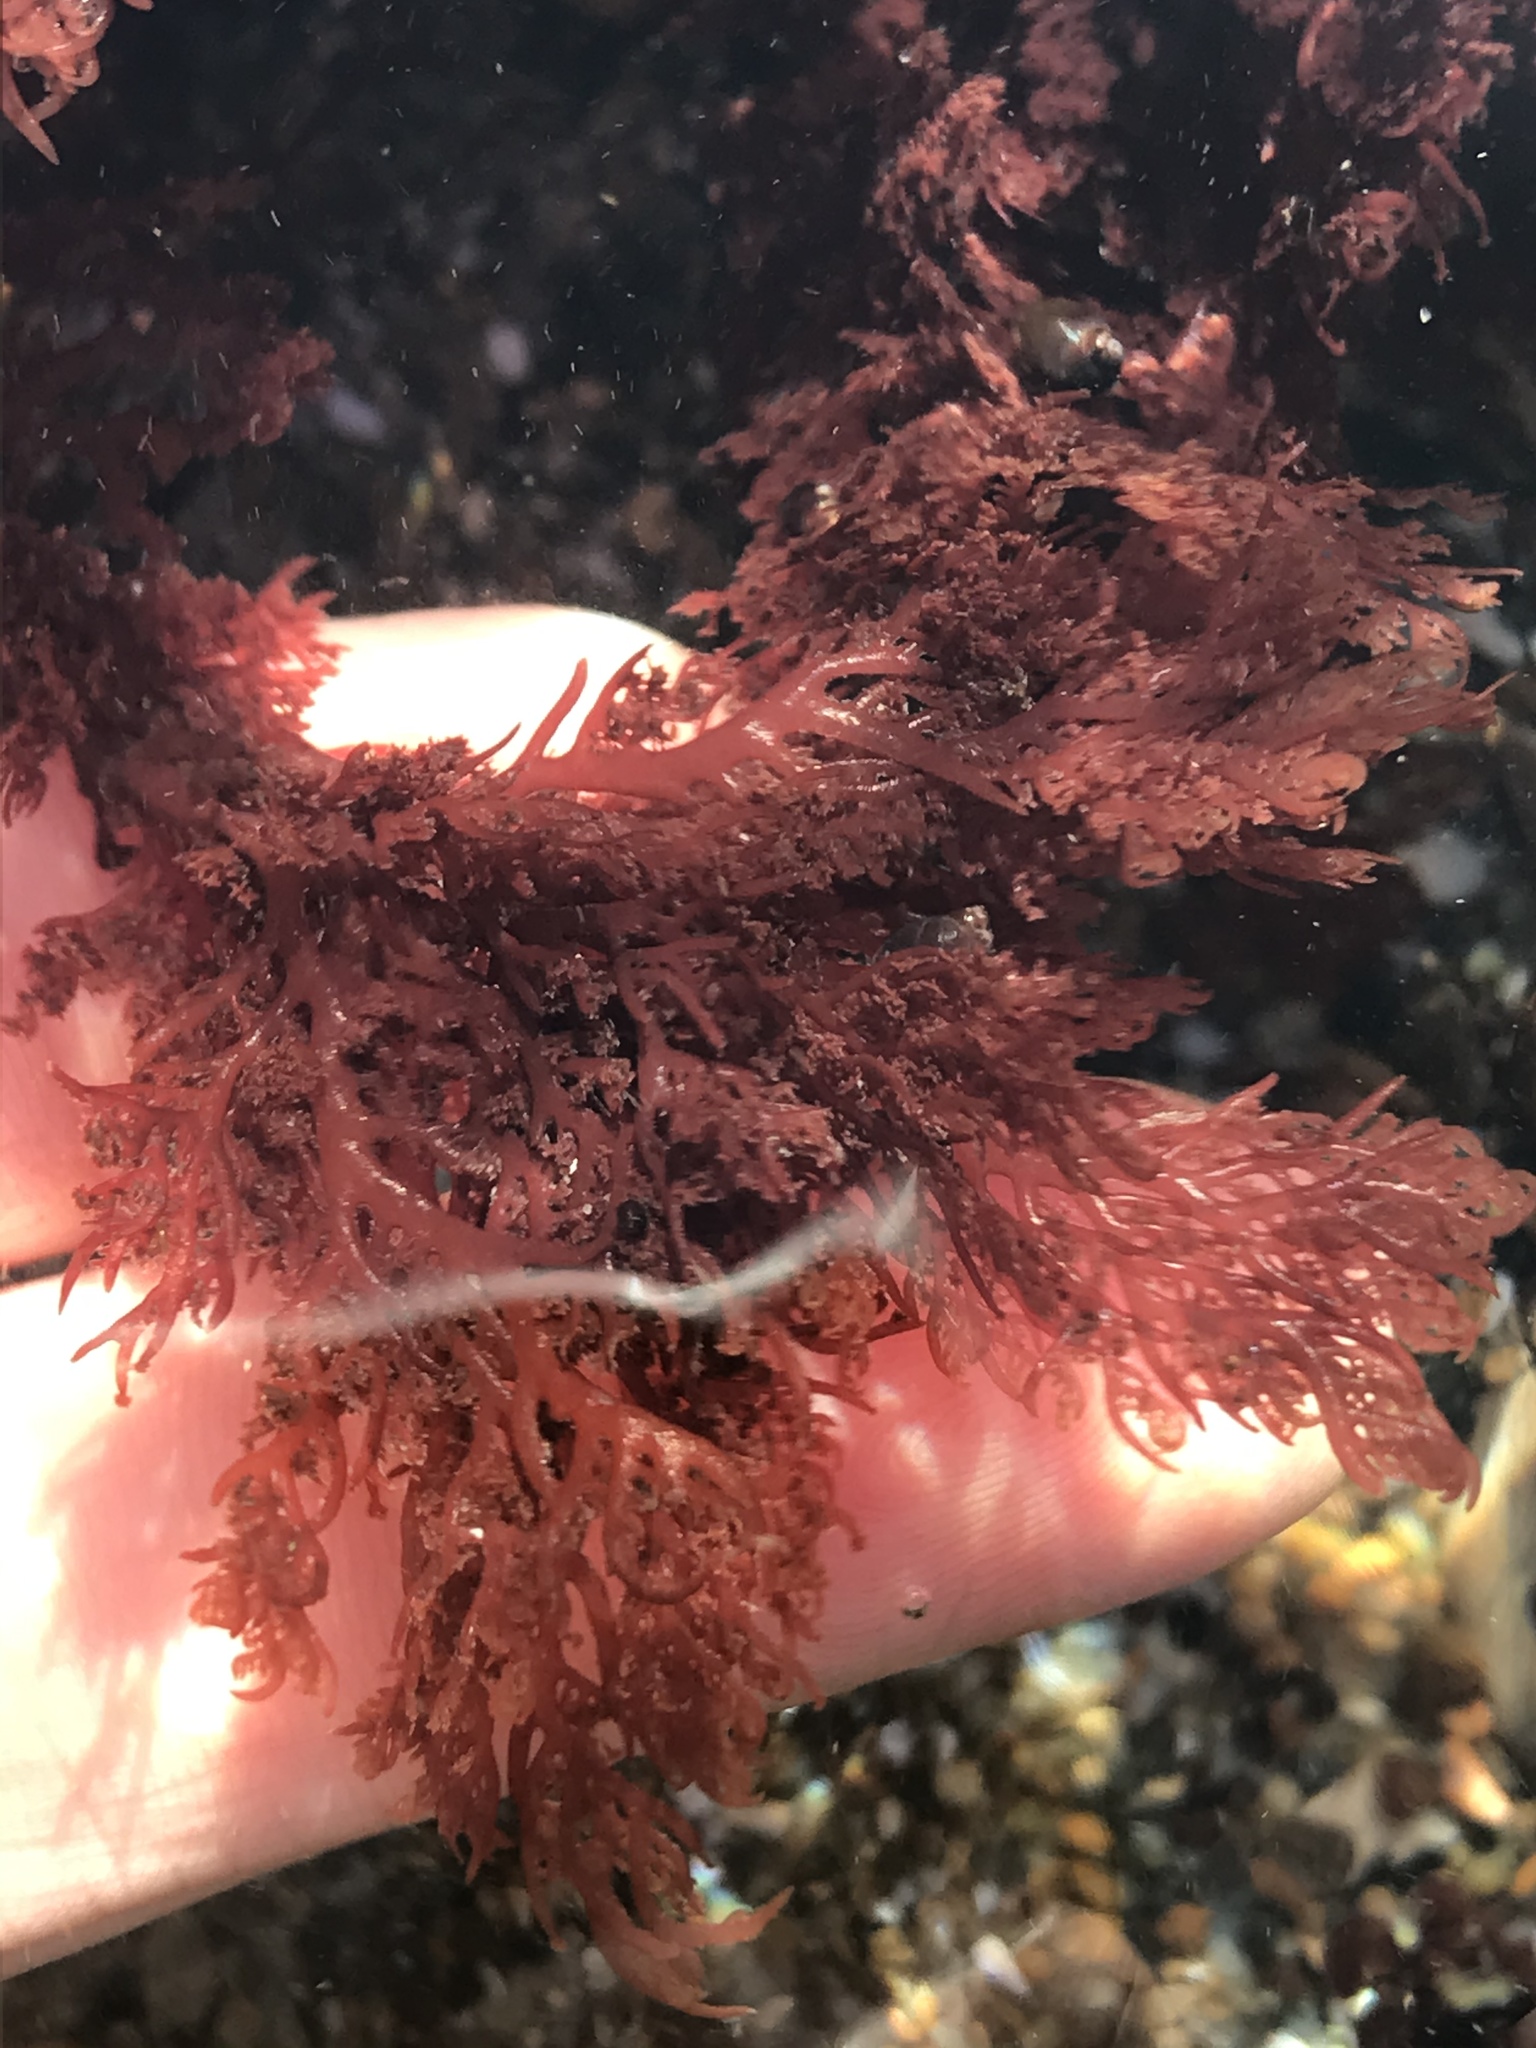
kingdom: Plantae
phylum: Rhodophyta
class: Florideophyceae
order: Plocamiales
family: Plocamiaceae
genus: Plocamium
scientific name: Plocamium cartilagineum
